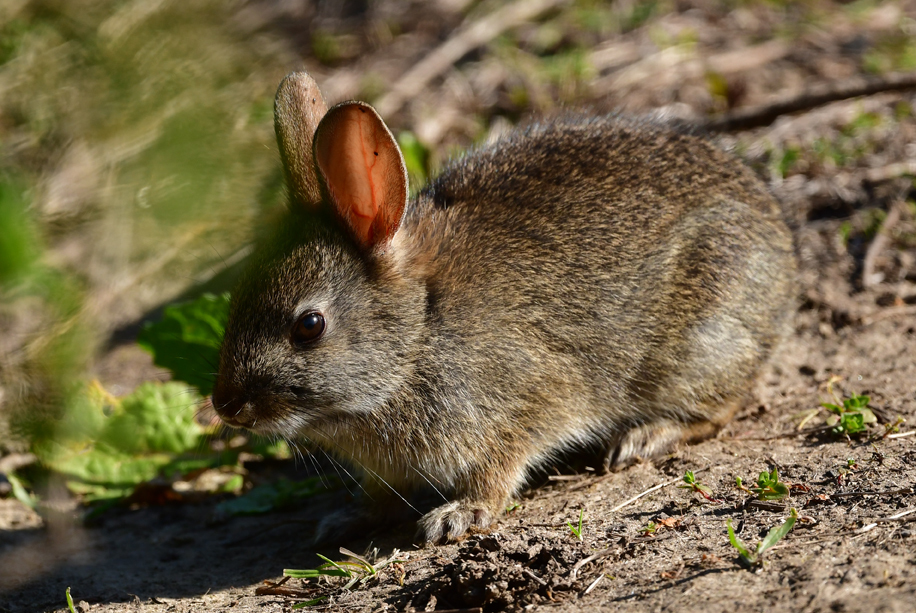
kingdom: Animalia
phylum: Chordata
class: Mammalia
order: Lagomorpha
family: Leporidae
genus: Sylvilagus
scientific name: Sylvilagus bachmani
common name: Brush rabbit
